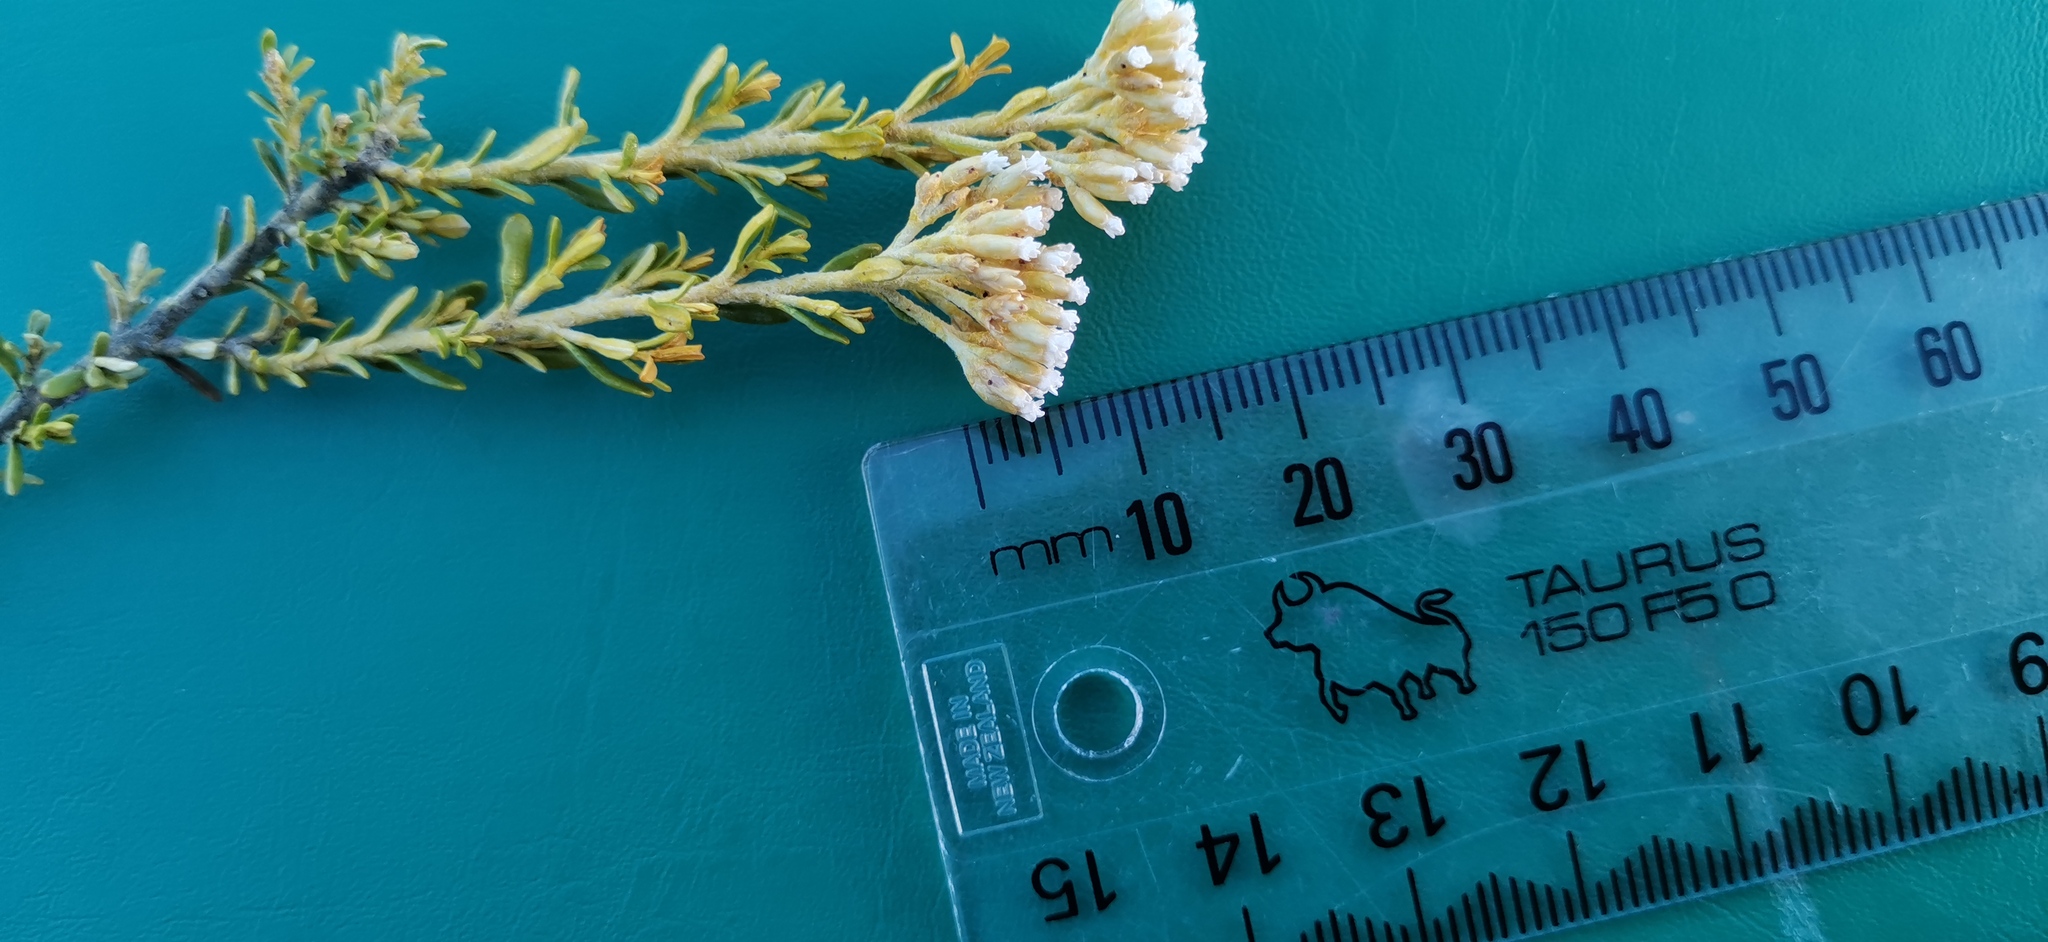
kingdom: Plantae
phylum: Tracheophyta
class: Magnoliopsida
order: Asterales
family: Asteraceae
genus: Ozothamnus
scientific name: Ozothamnus leptophyllus
